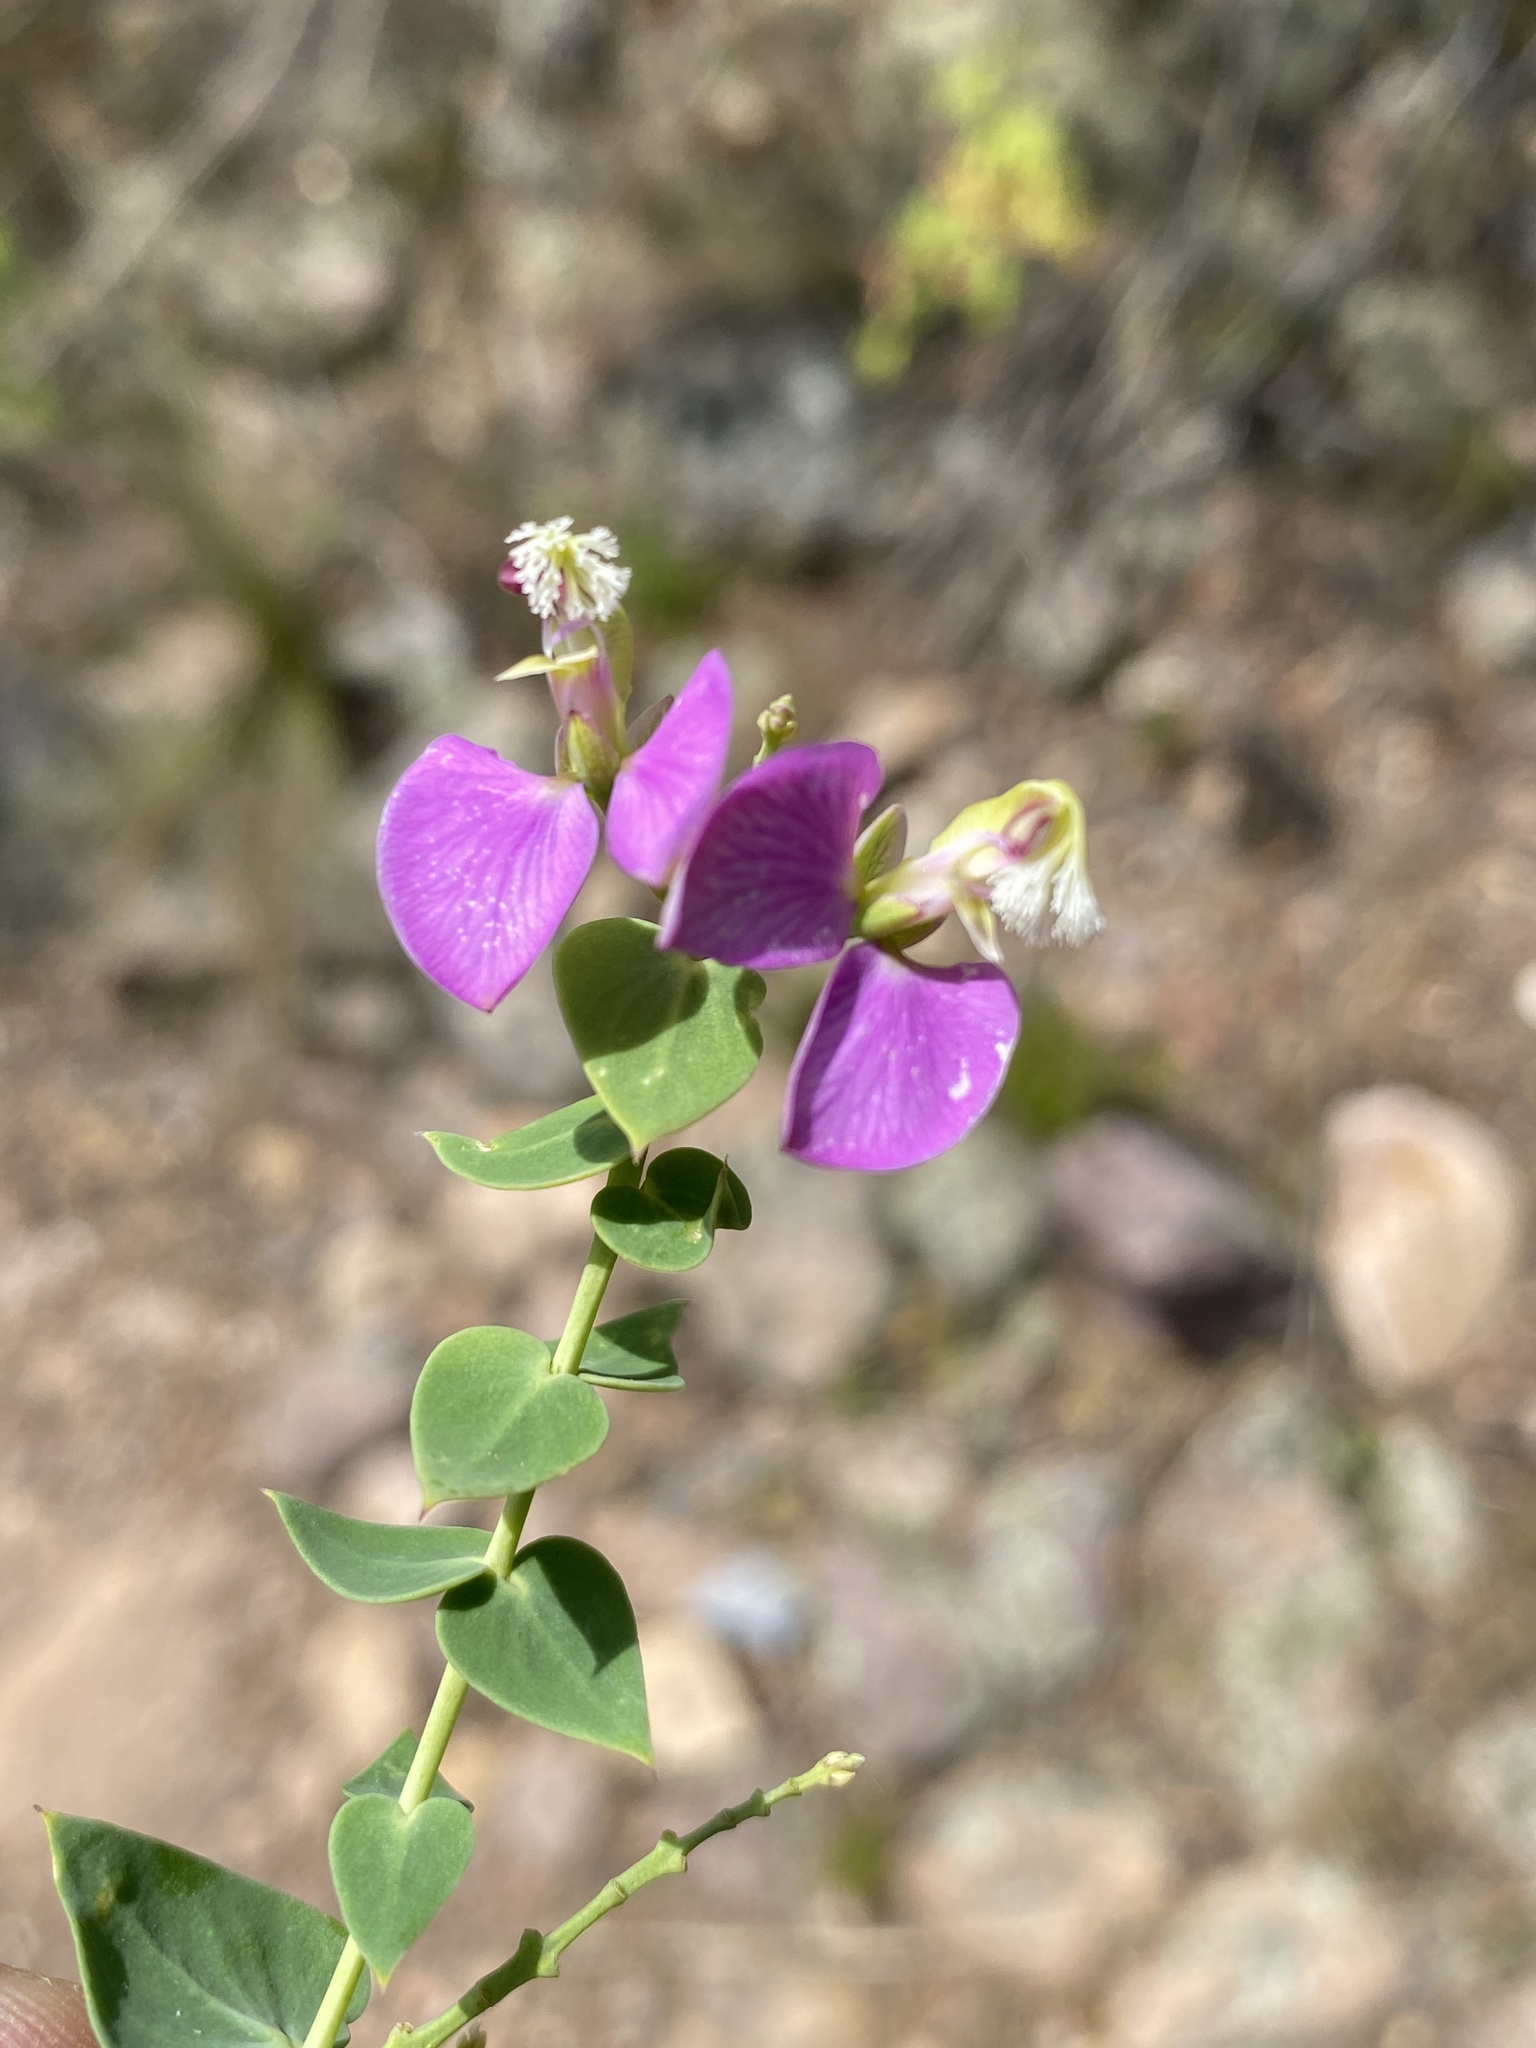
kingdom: Plantae
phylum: Tracheophyta
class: Magnoliopsida
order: Fabales
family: Polygalaceae
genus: Polygala
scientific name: Polygala fruticosa
